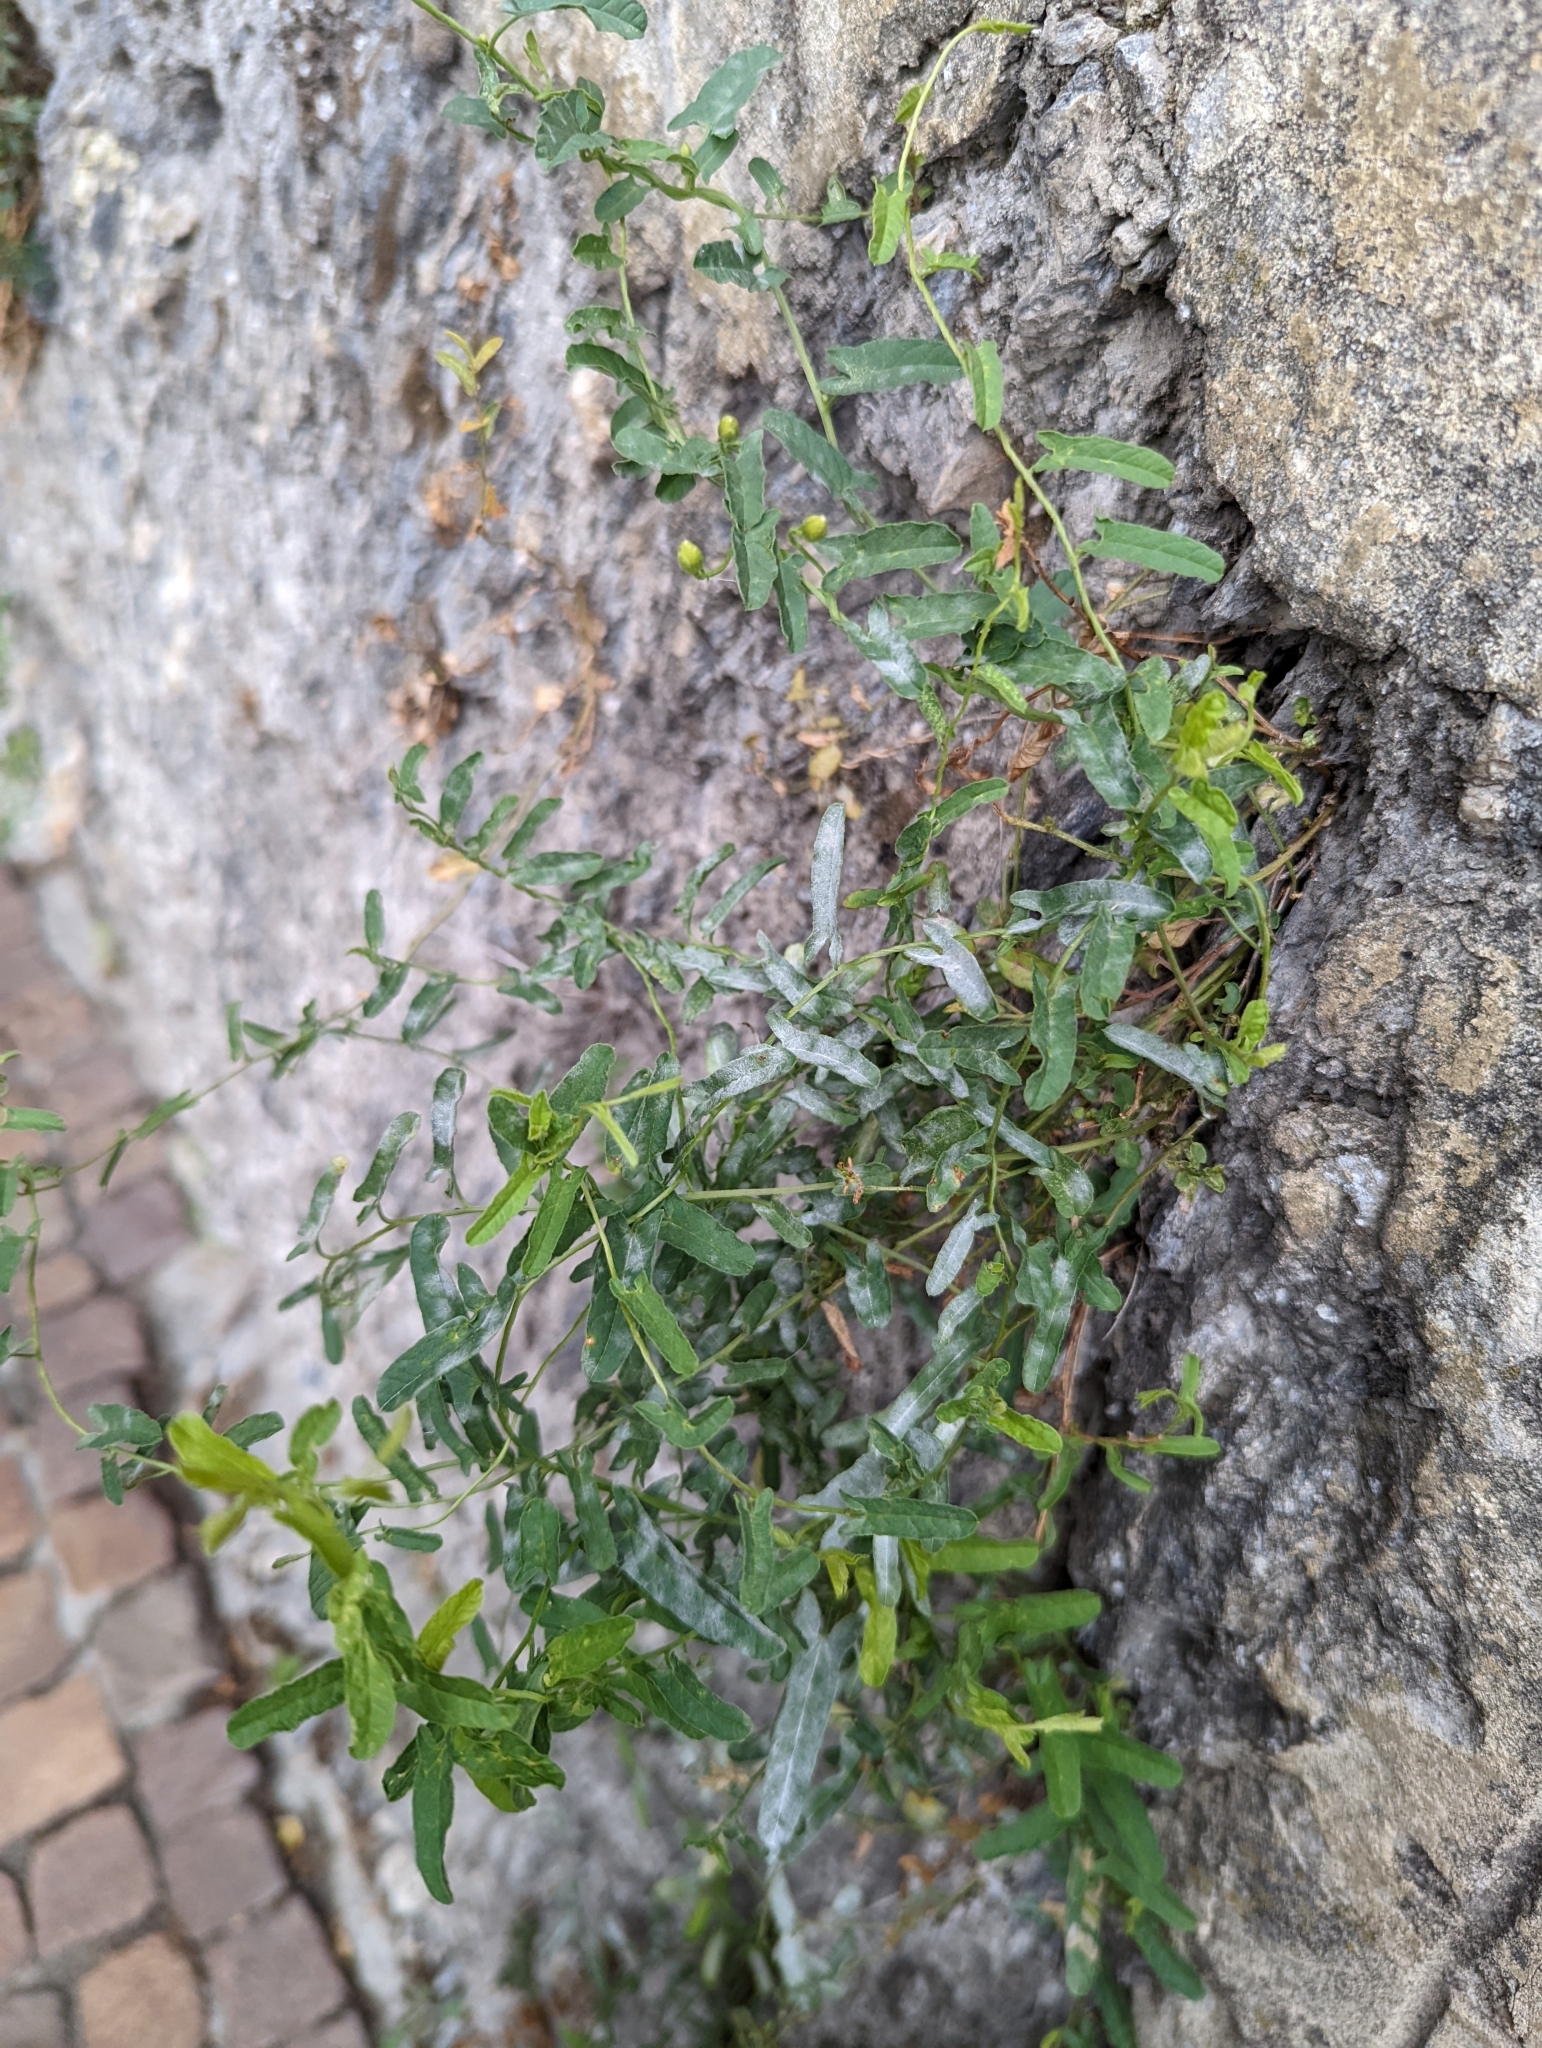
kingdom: Plantae
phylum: Tracheophyta
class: Magnoliopsida
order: Solanales
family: Convolvulaceae
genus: Convolvulus
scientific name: Convolvulus arvensis
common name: Field bindweed
